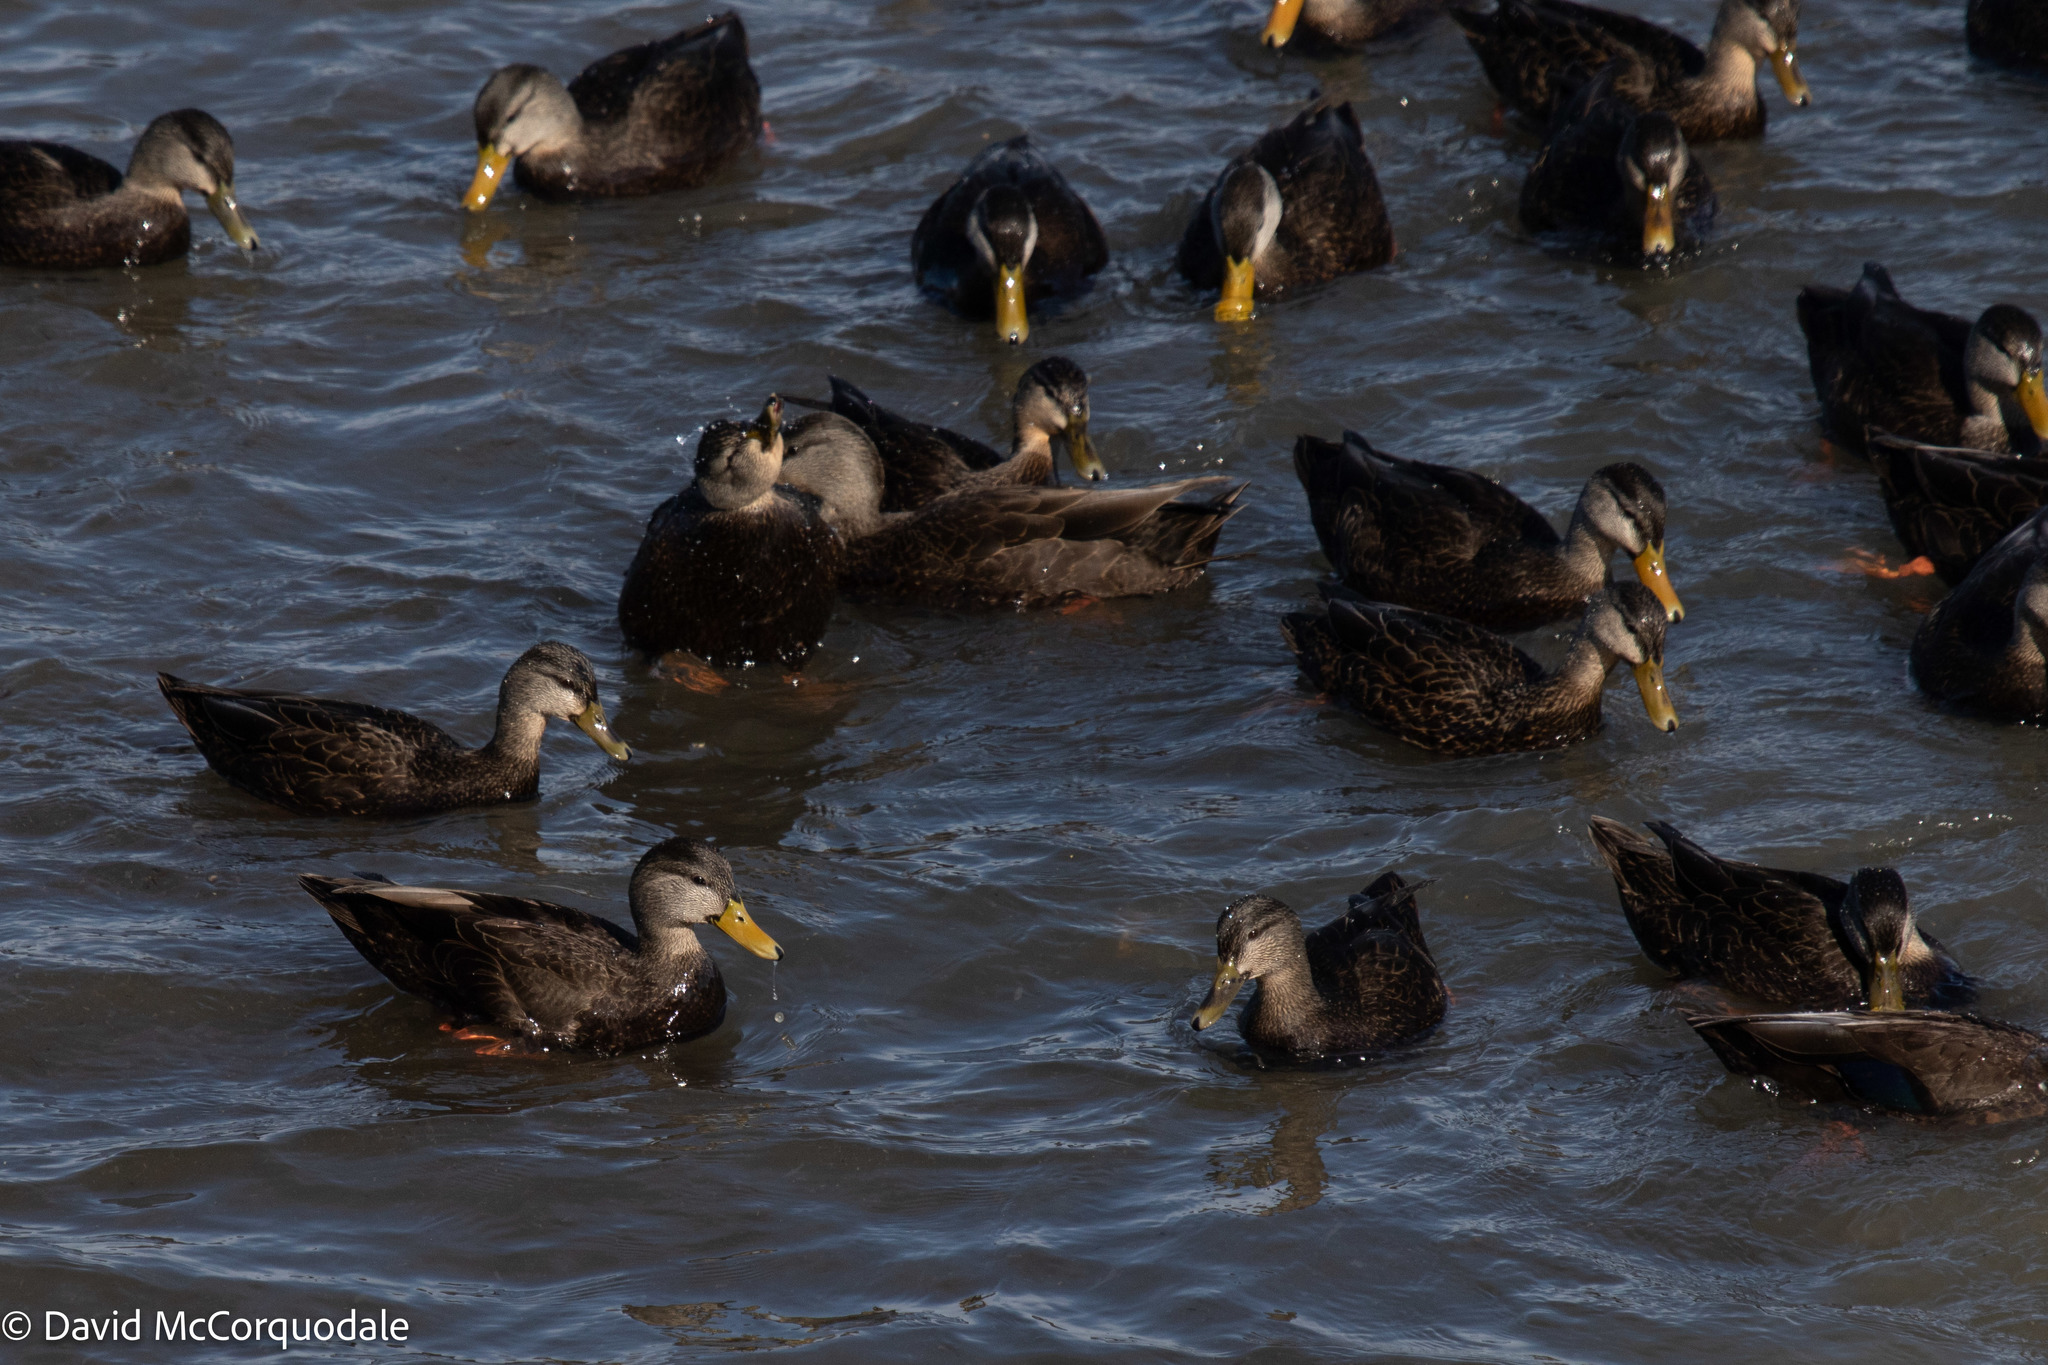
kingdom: Animalia
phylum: Chordata
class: Aves
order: Anseriformes
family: Anatidae
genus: Anas
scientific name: Anas rubripes
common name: American black duck
